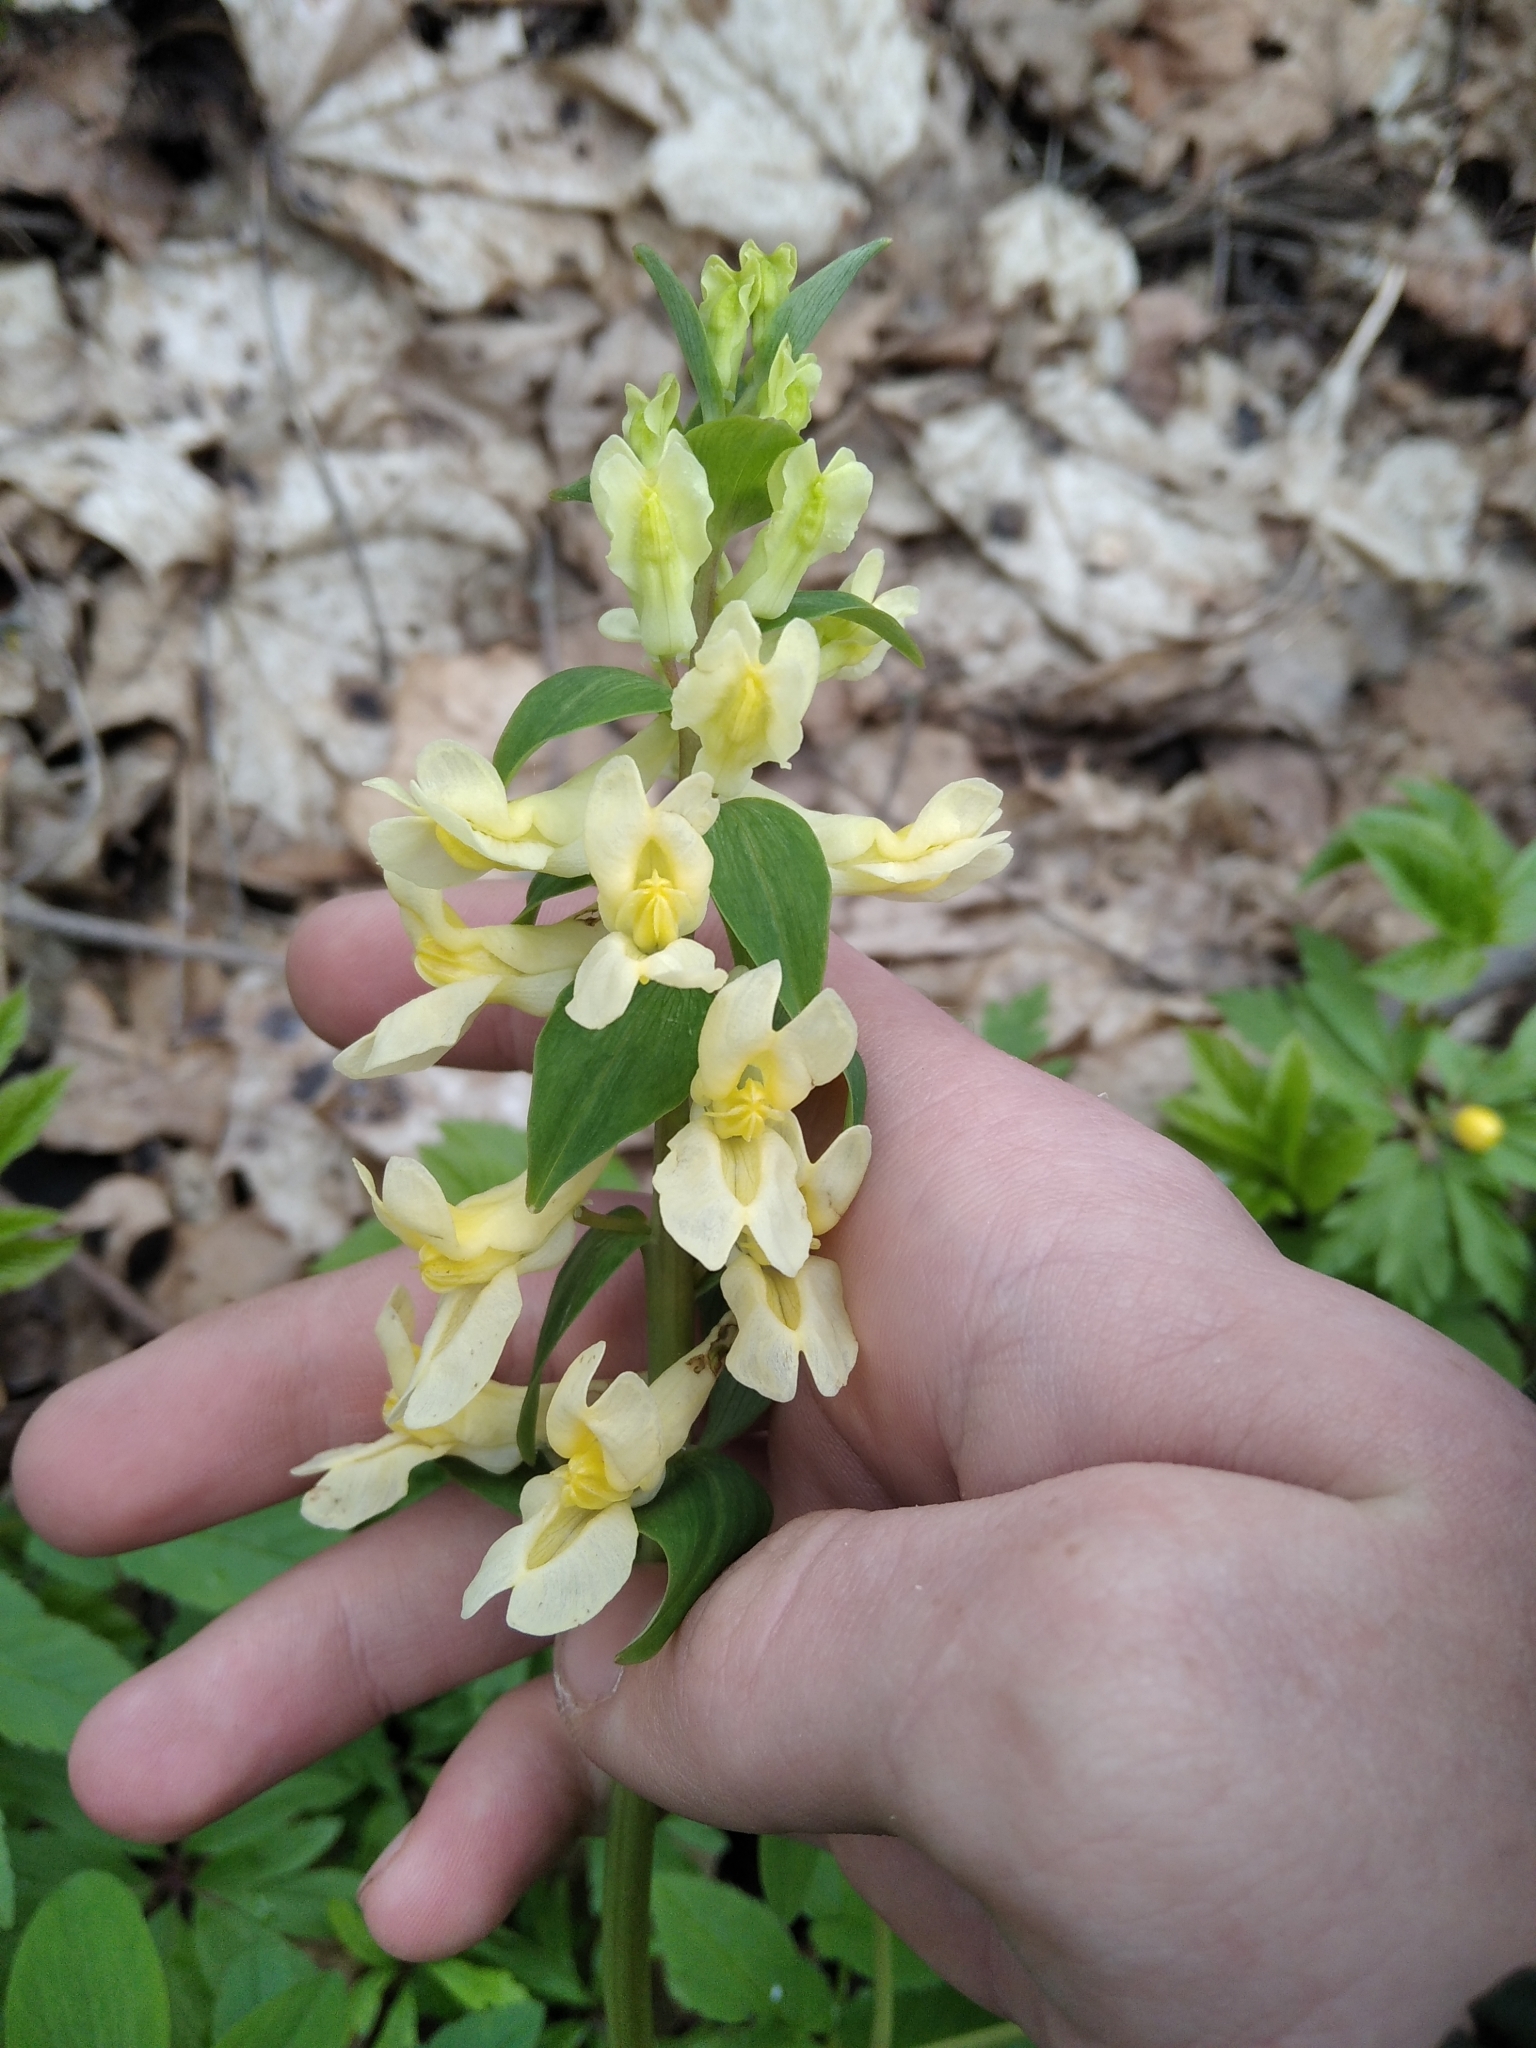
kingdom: Plantae
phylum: Tracheophyta
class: Magnoliopsida
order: Ranunculales
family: Papaveraceae
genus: Corydalis
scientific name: Corydalis cava
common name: Hollowroot
